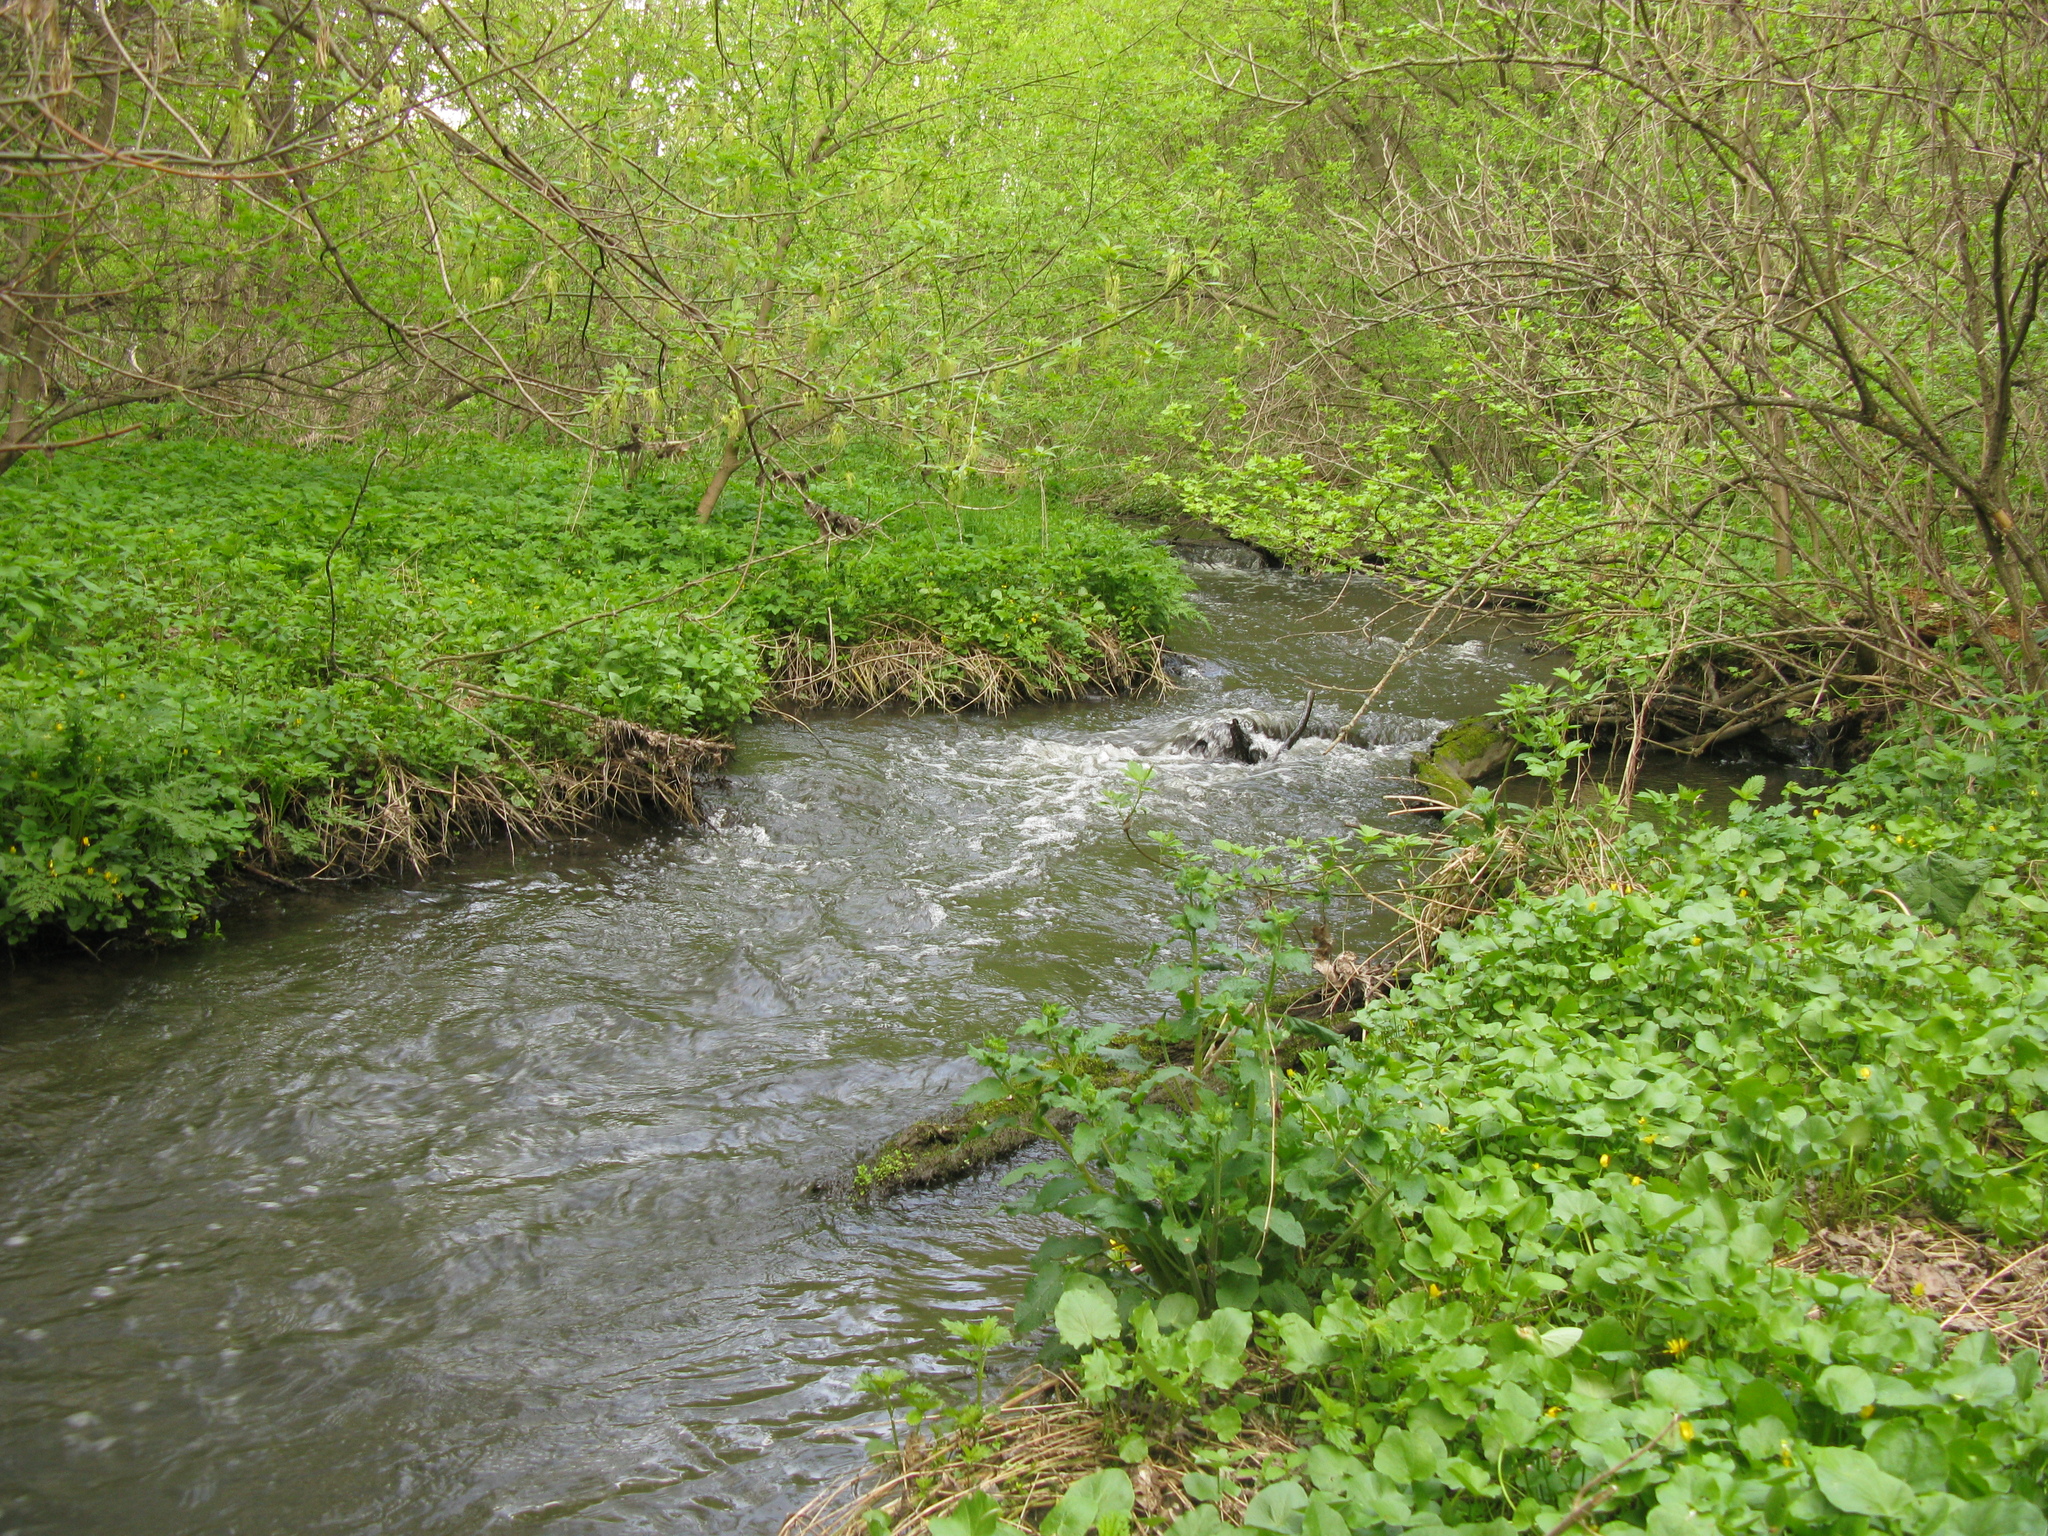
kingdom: Plantae
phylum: Tracheophyta
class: Magnoliopsida
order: Ranunculales
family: Ranunculaceae
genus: Ficaria
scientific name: Ficaria verna
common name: Lesser celandine
